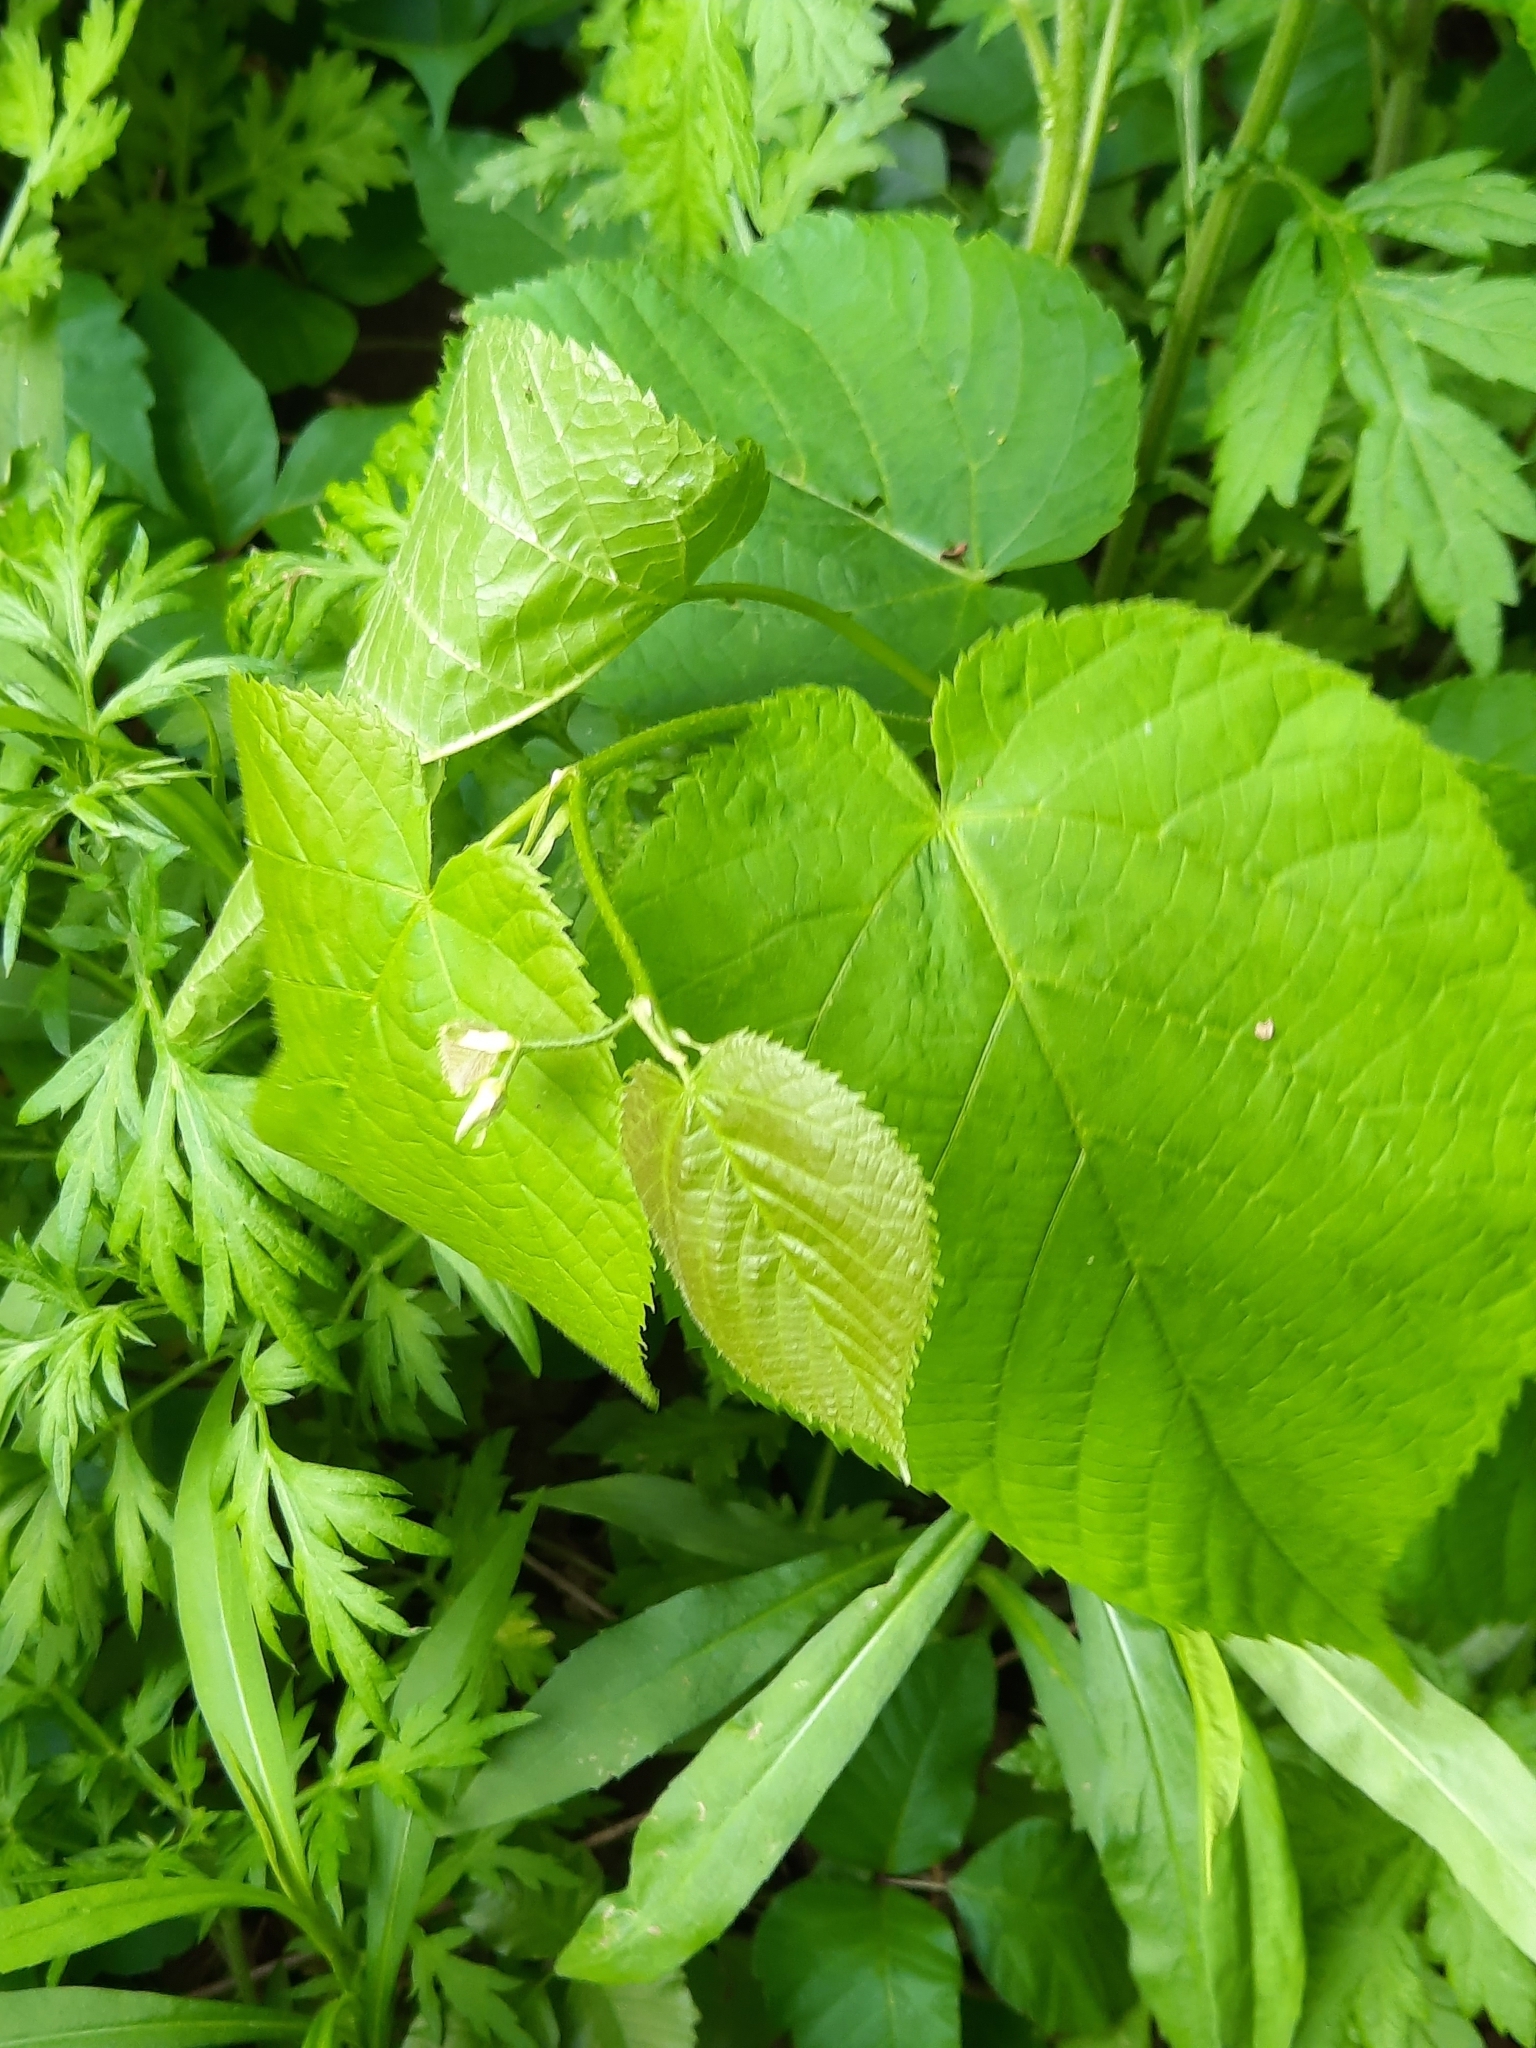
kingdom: Plantae
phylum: Tracheophyta
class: Magnoliopsida
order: Malvales
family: Malvaceae
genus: Tilia
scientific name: Tilia americana
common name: Basswood
